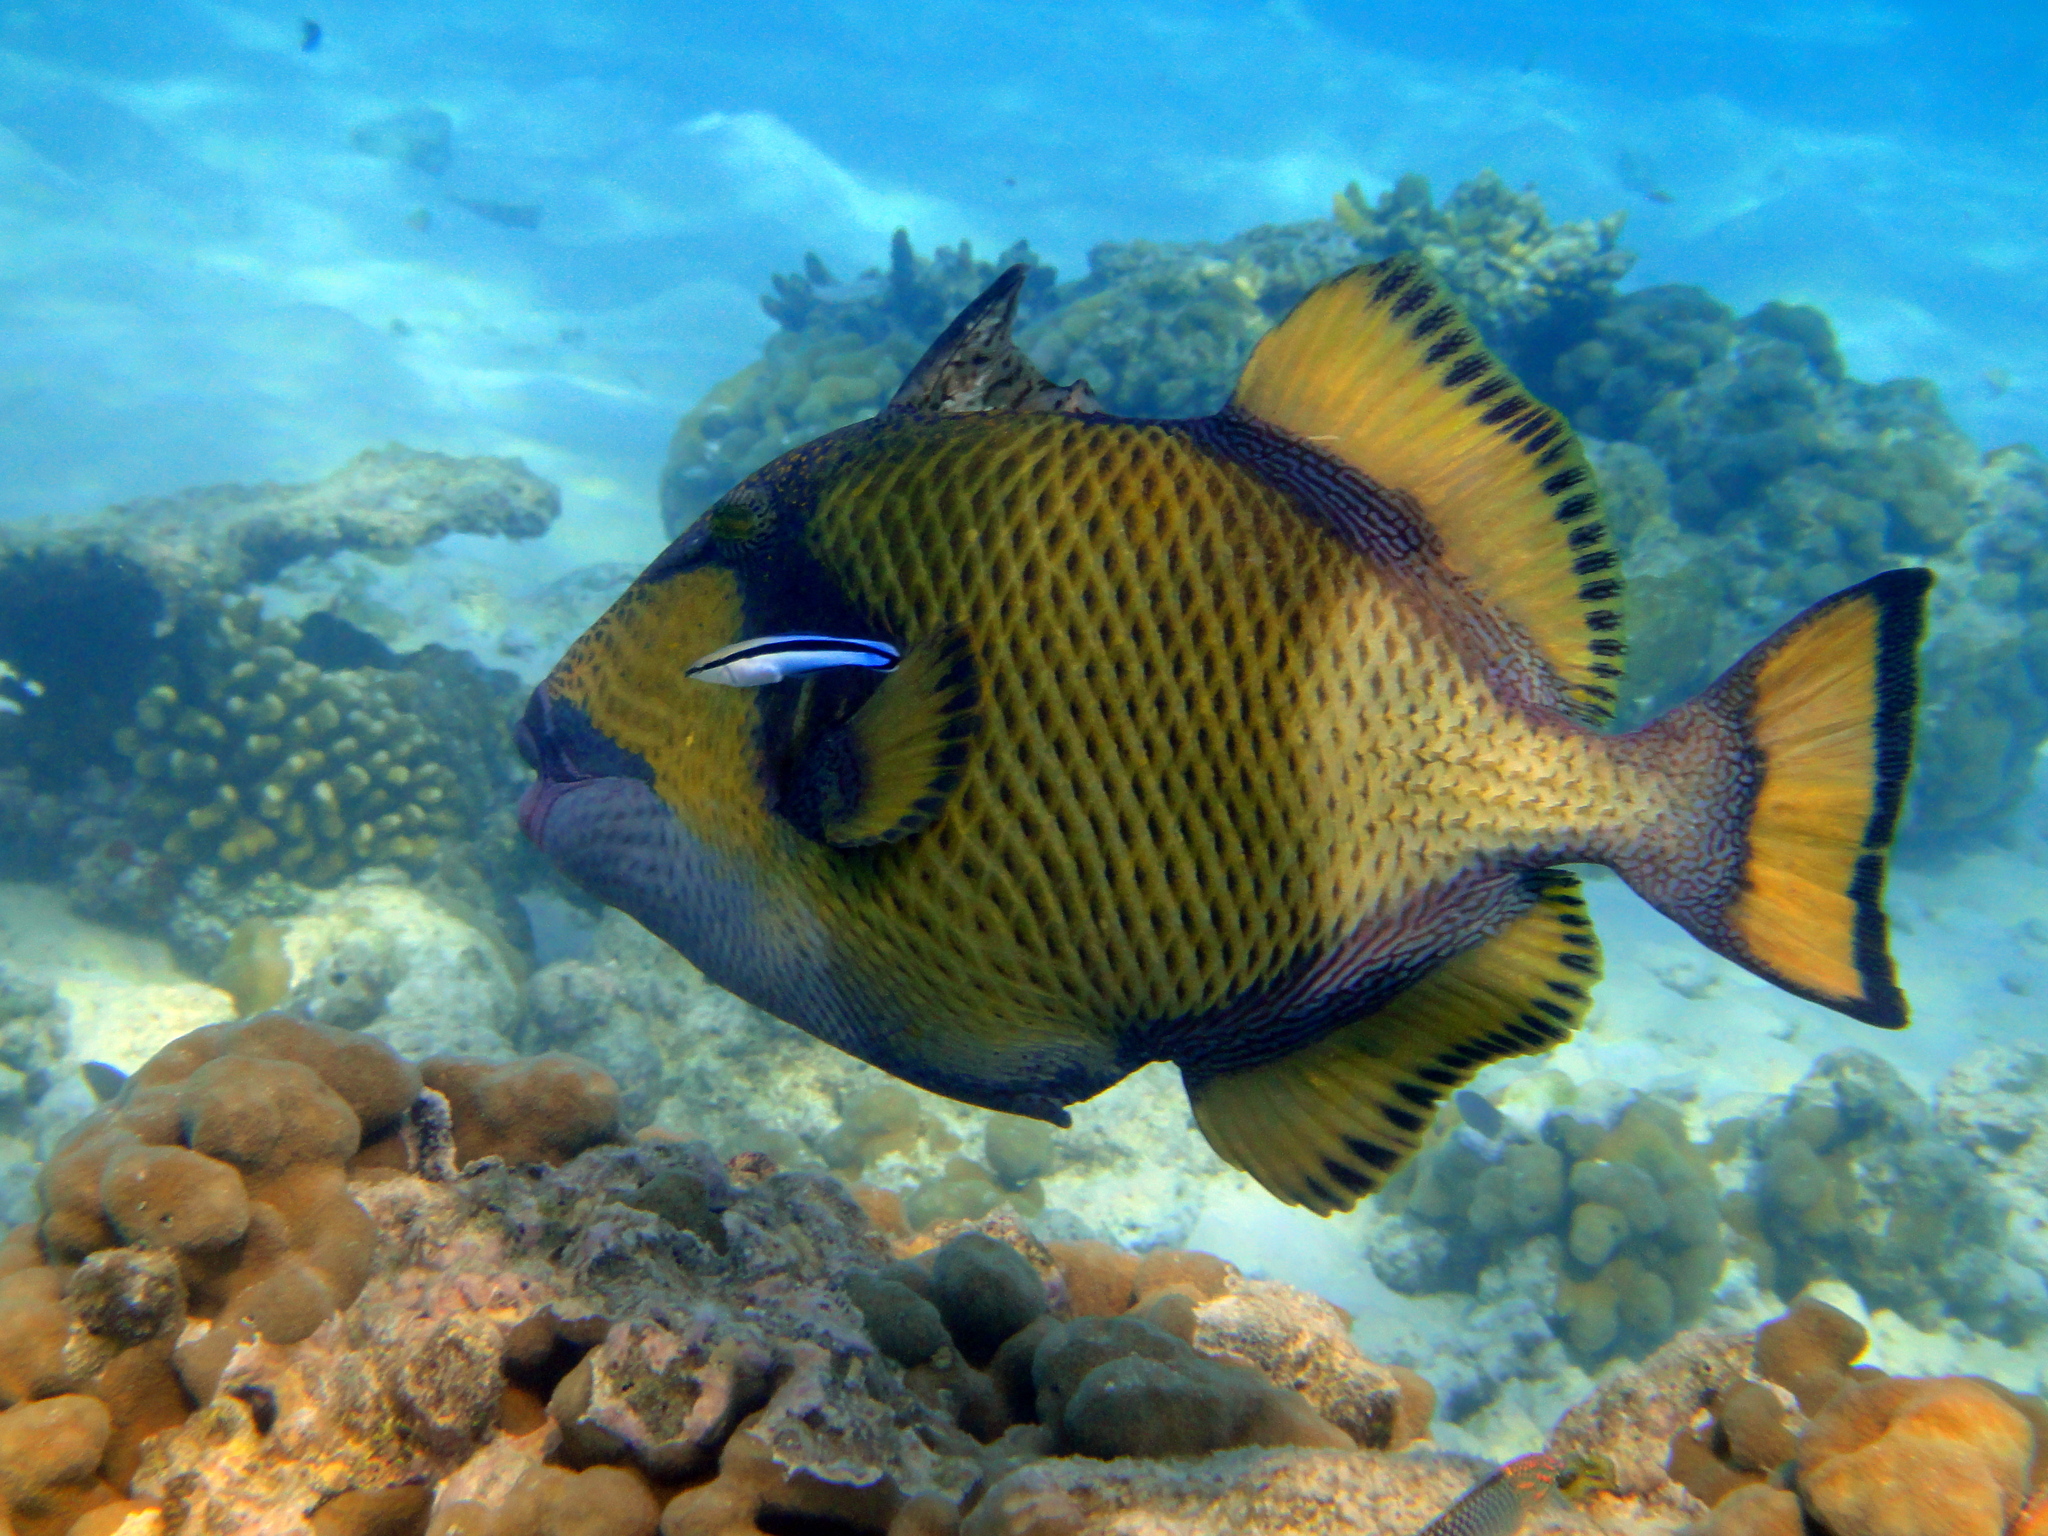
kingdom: Animalia
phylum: Chordata
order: Tetraodontiformes
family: Balistidae
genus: Balistoides
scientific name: Balistoides viridescens
